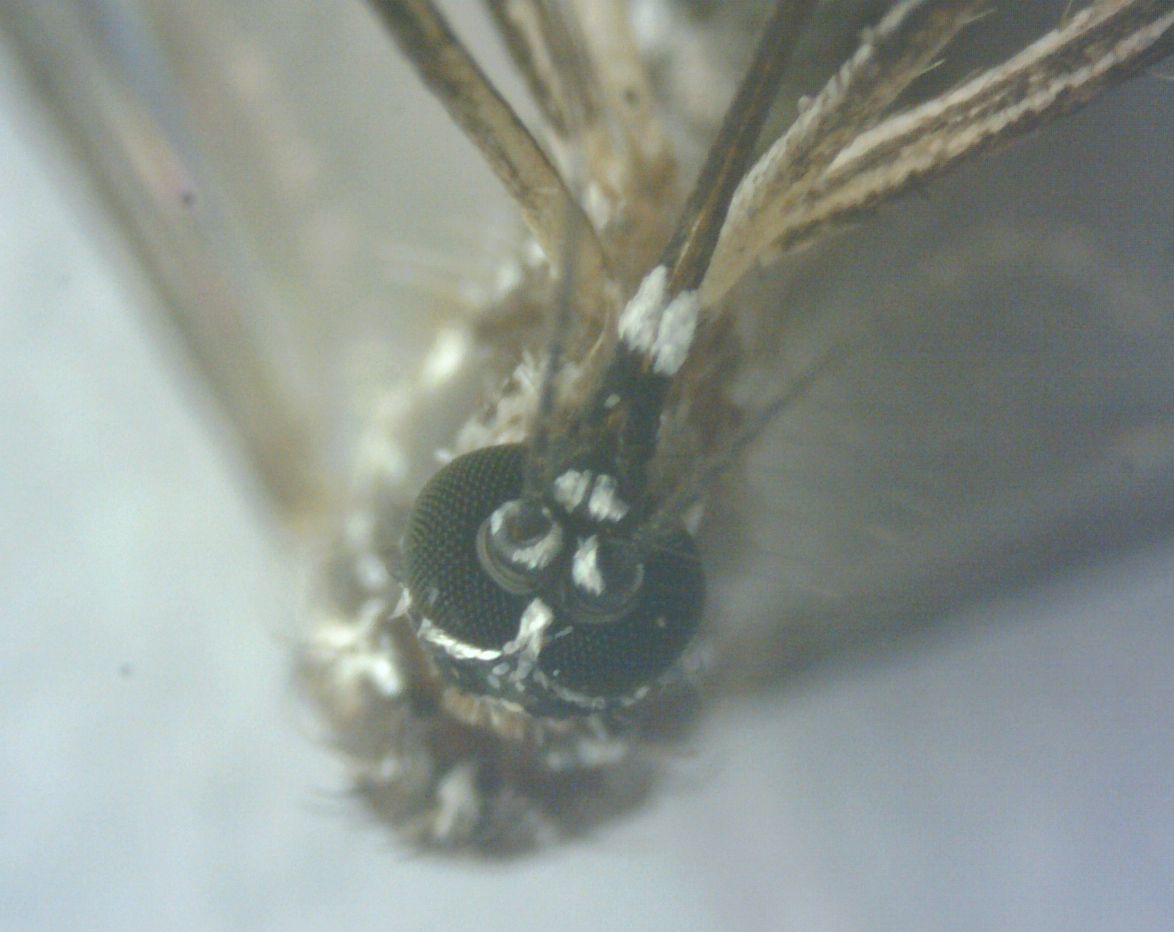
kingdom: Animalia
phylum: Arthropoda
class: Insecta
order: Diptera
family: Culicidae
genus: Aedes
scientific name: Aedes aegypti
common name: Yellow fever mosquito
